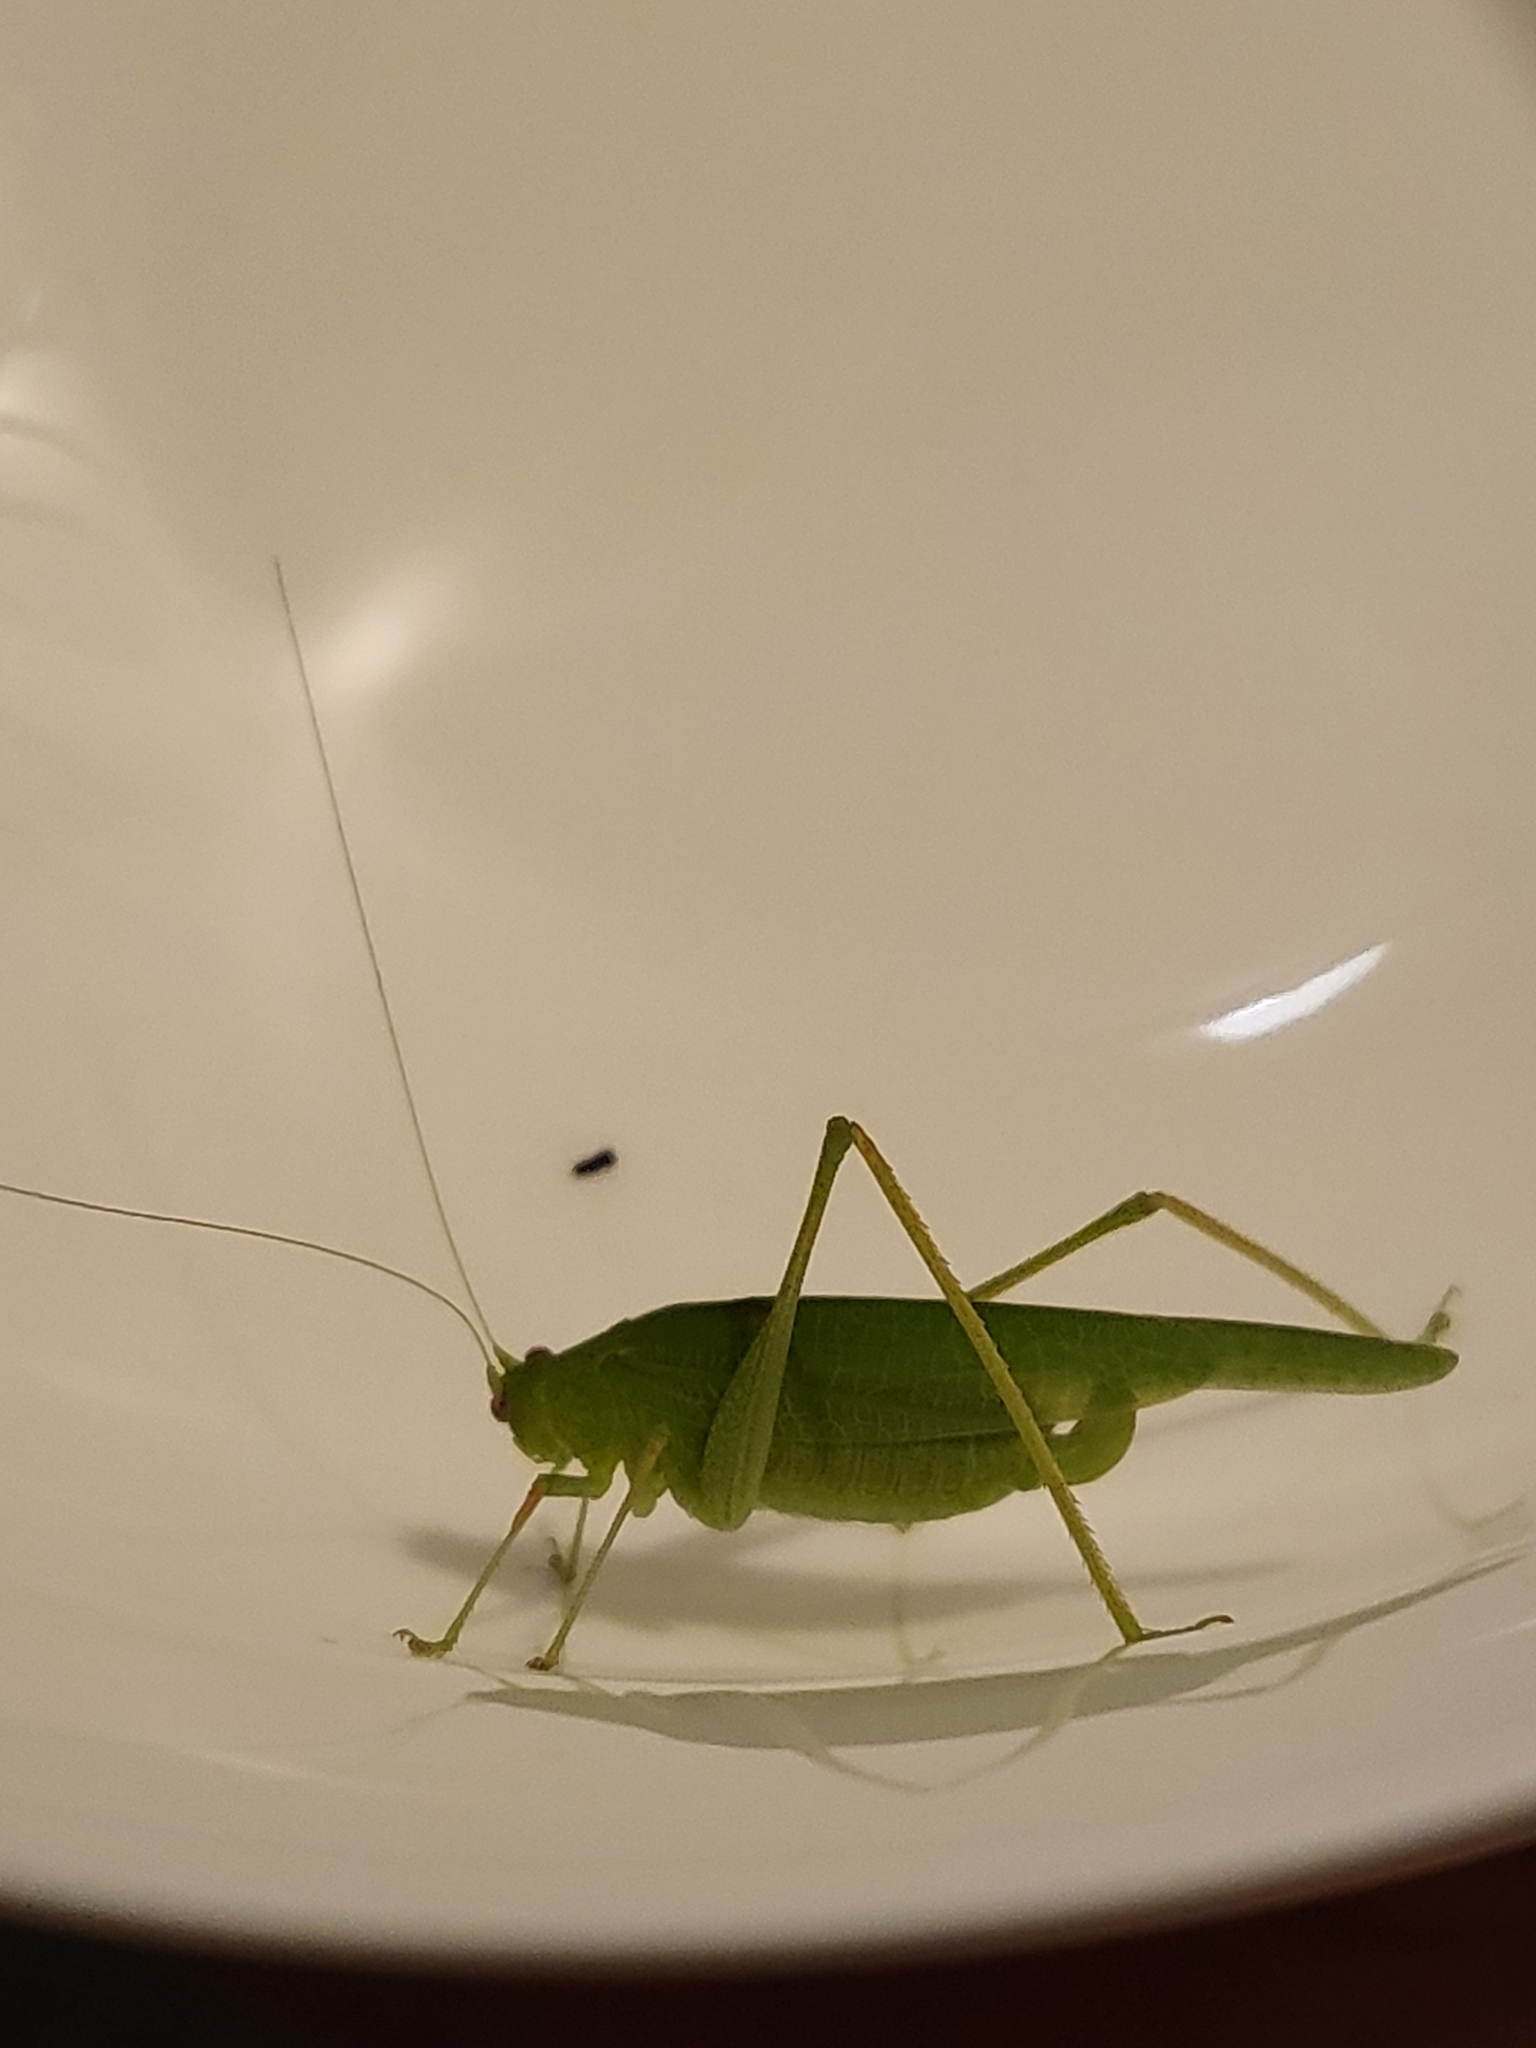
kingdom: Animalia
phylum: Arthropoda
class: Insecta
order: Orthoptera
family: Tettigoniidae
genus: Phaneroptera
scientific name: Phaneroptera nana
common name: Southern sickle bush-cricket
